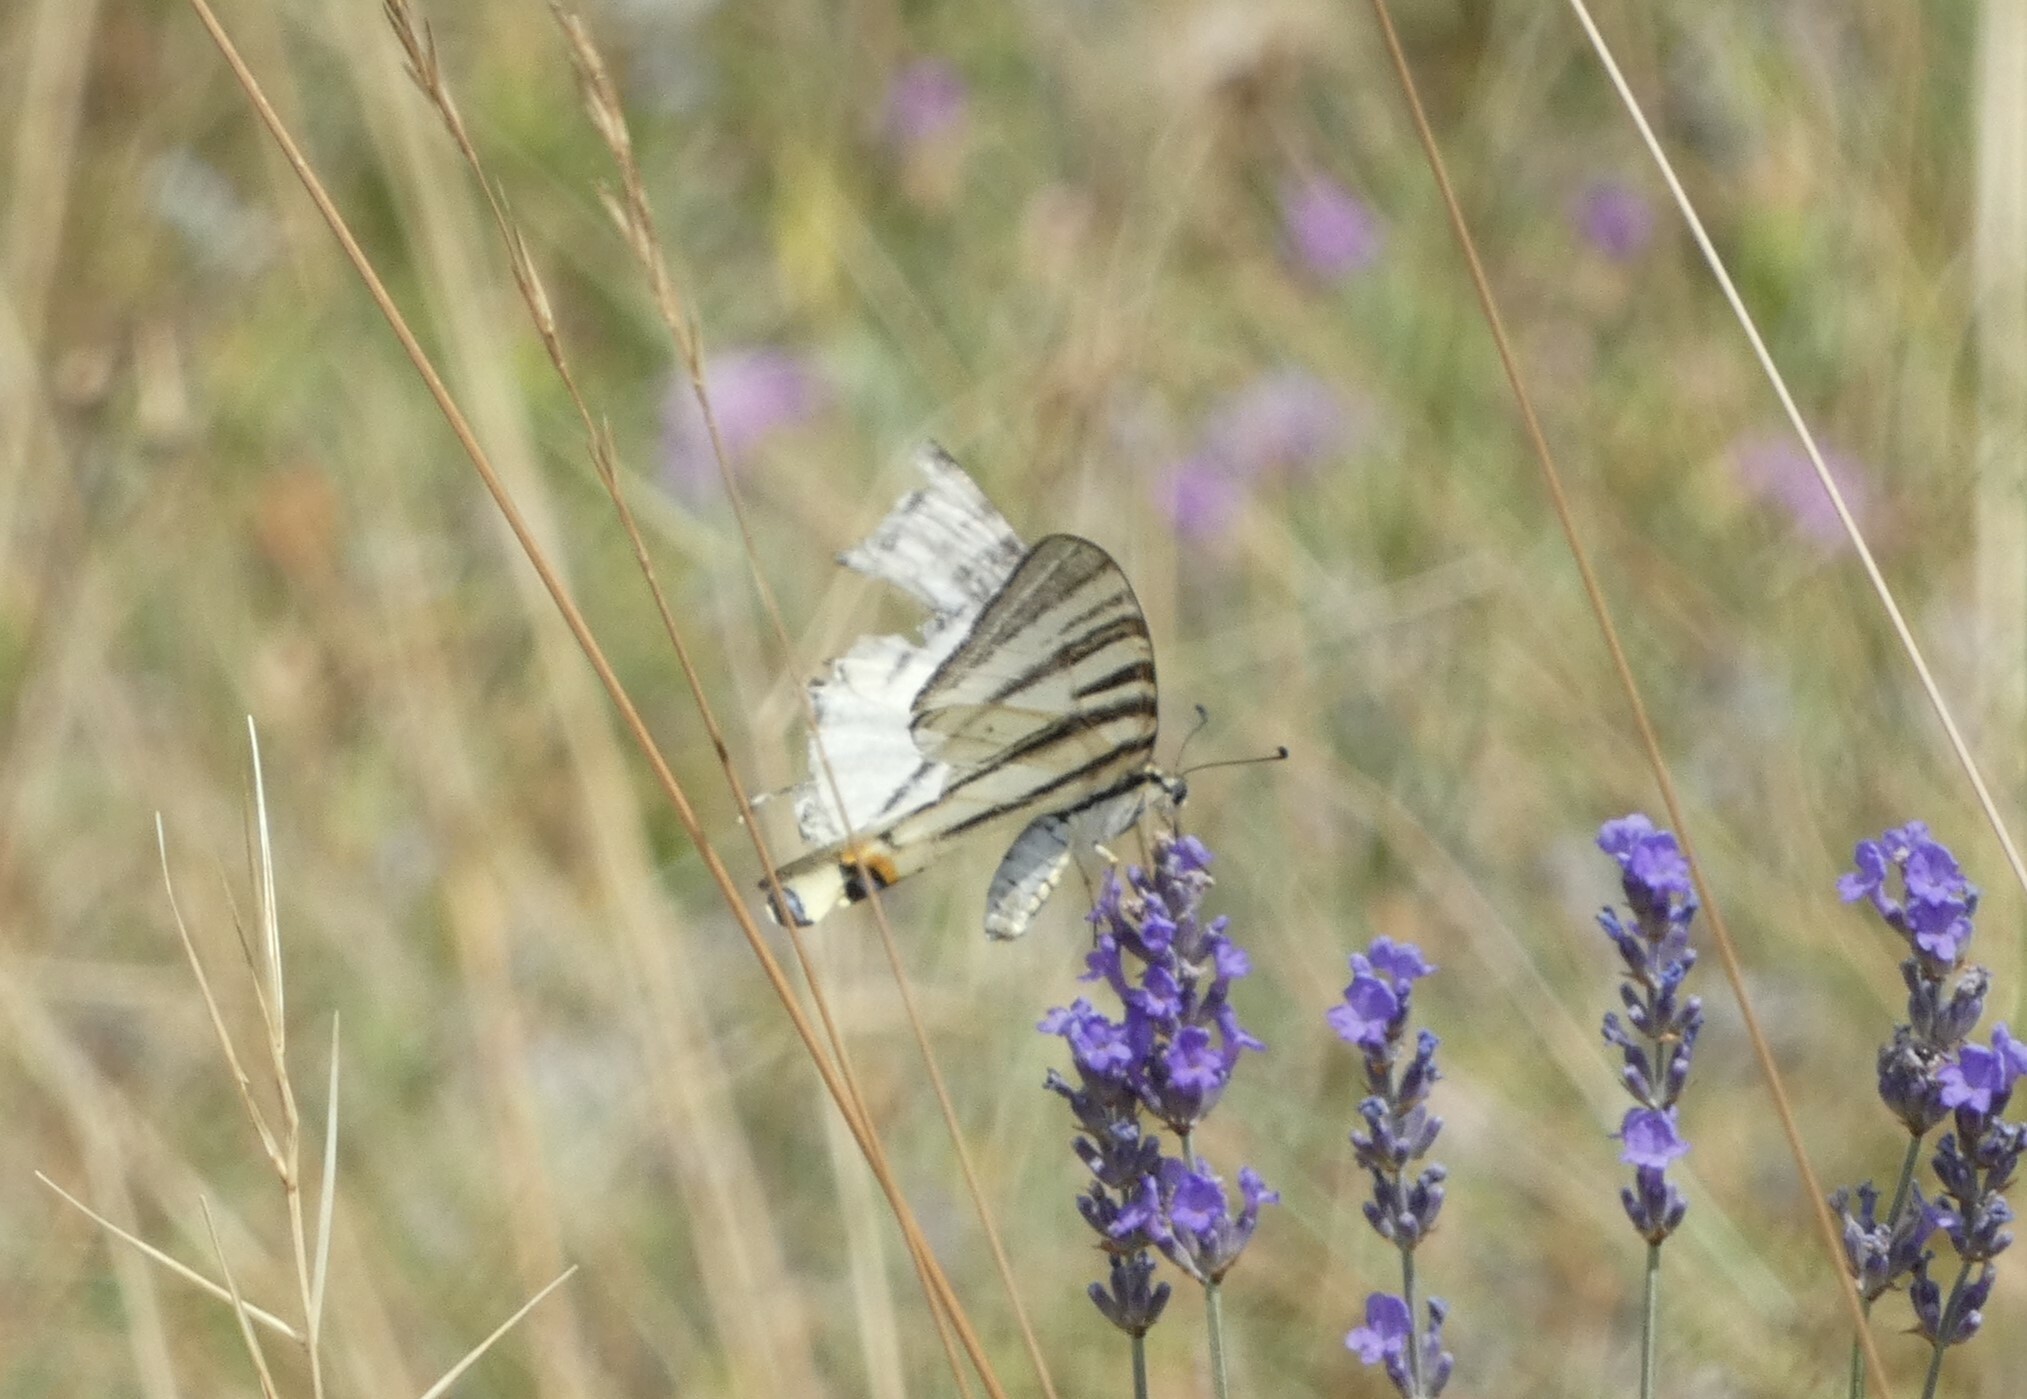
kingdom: Animalia
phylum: Arthropoda
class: Insecta
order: Lepidoptera
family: Papilionidae
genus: Iphiclides
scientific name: Iphiclides podalirius
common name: Scarce swallowtail
